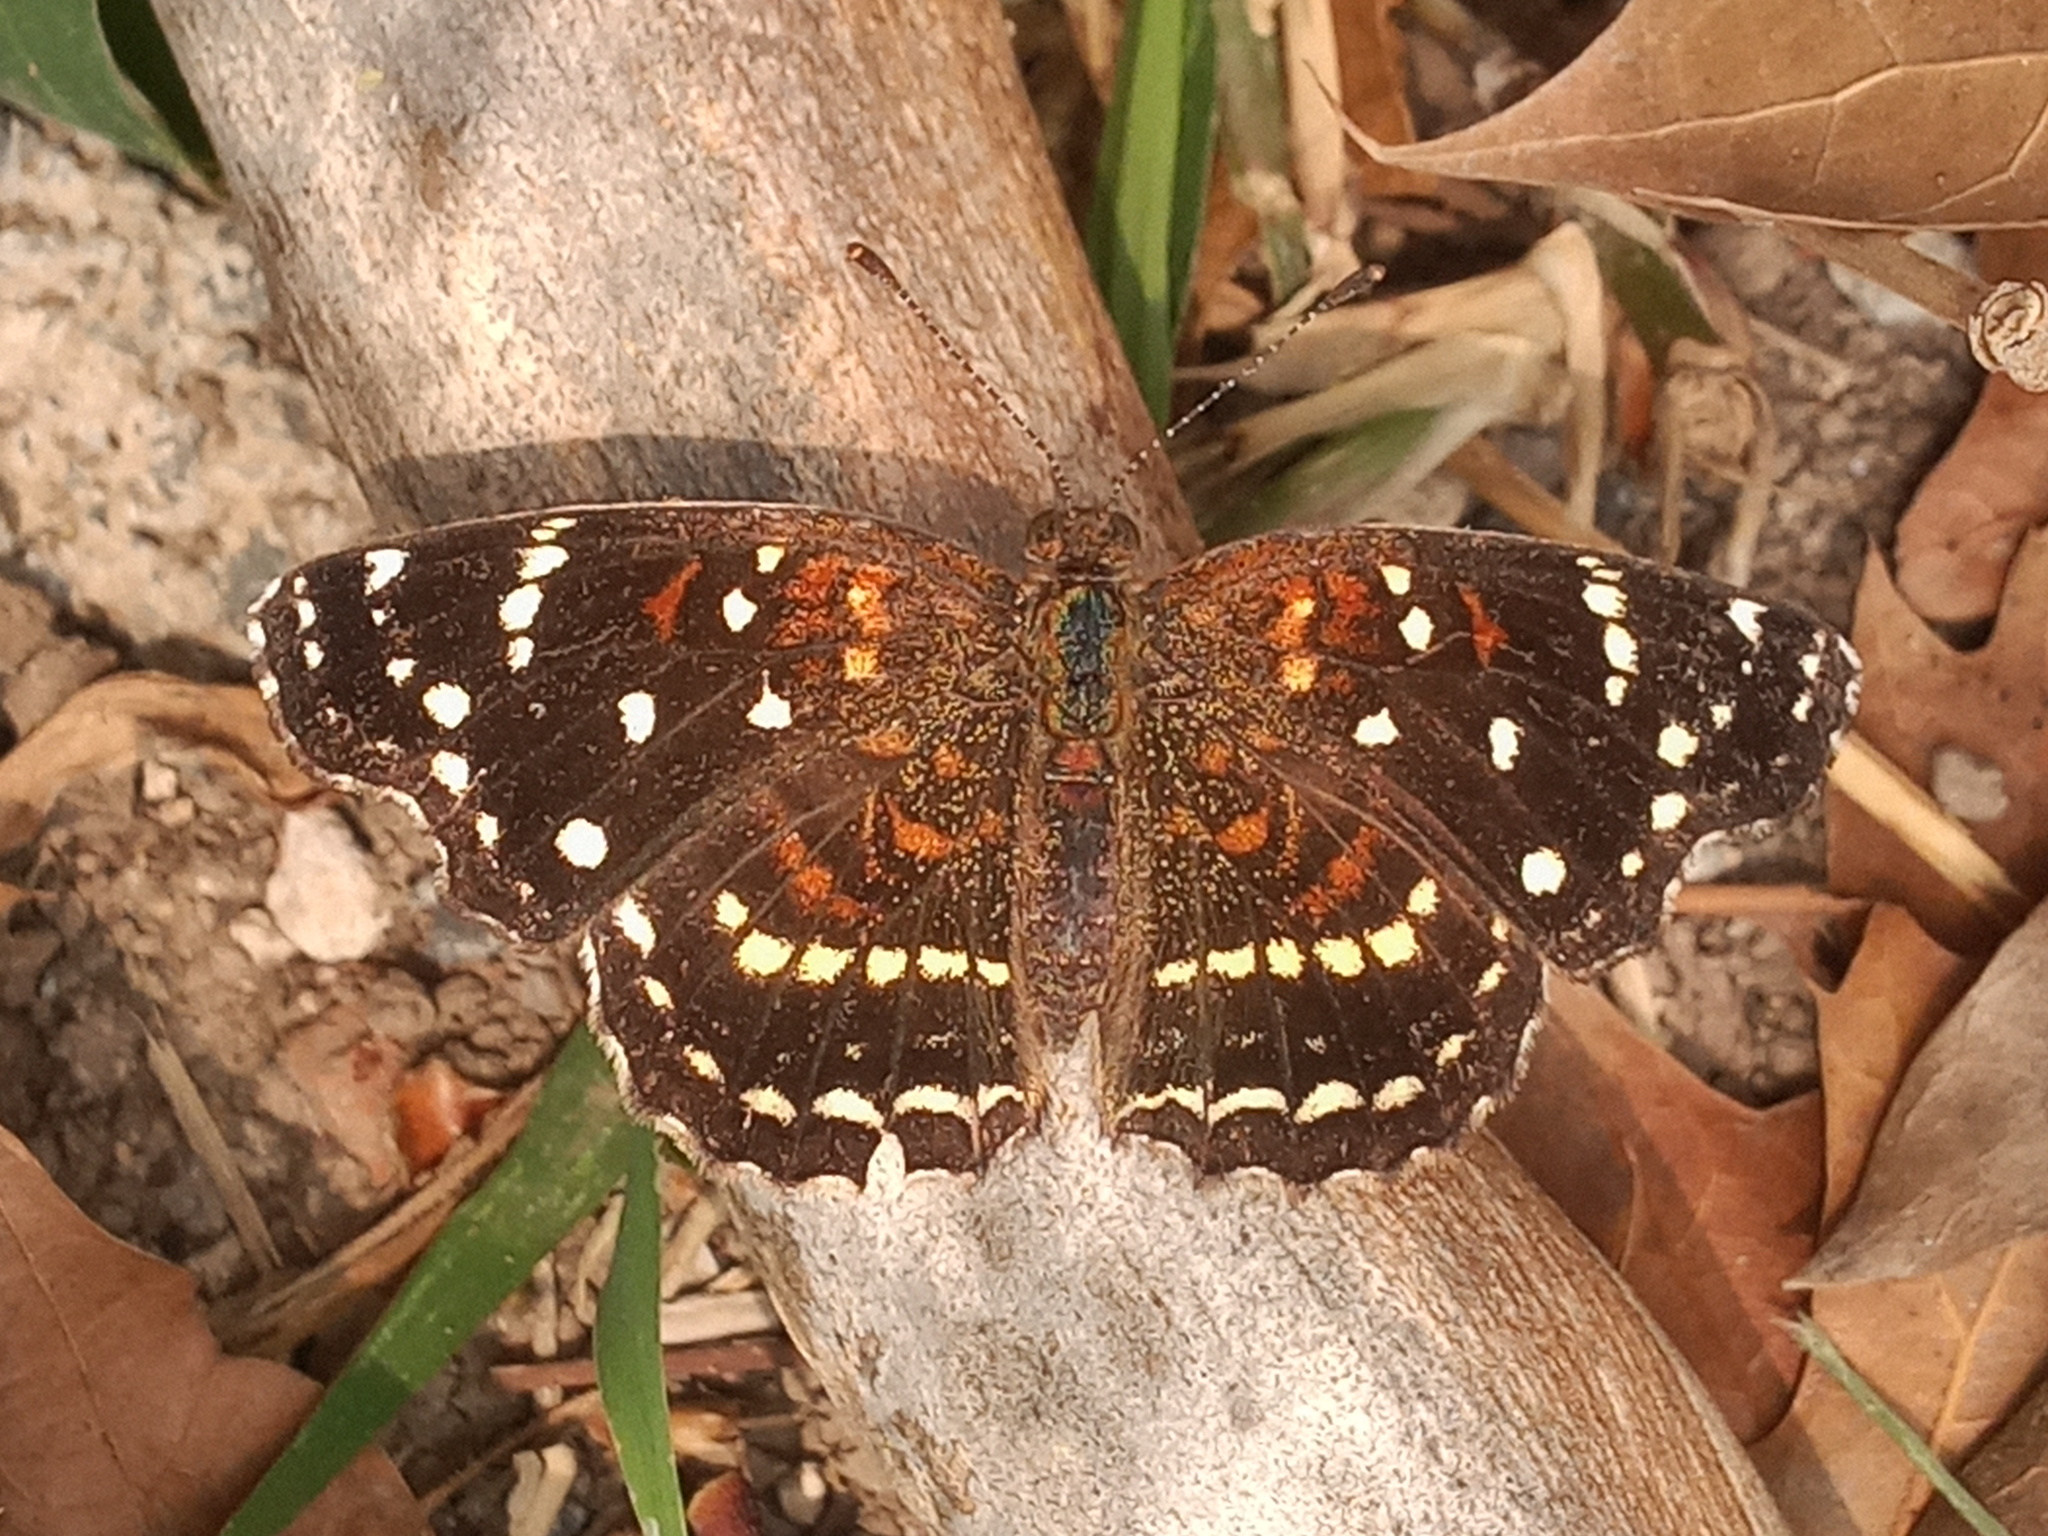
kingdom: Animalia
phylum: Arthropoda
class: Insecta
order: Lepidoptera
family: Nymphalidae
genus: Anthanassa
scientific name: Anthanassa texana
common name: Texan crescent
